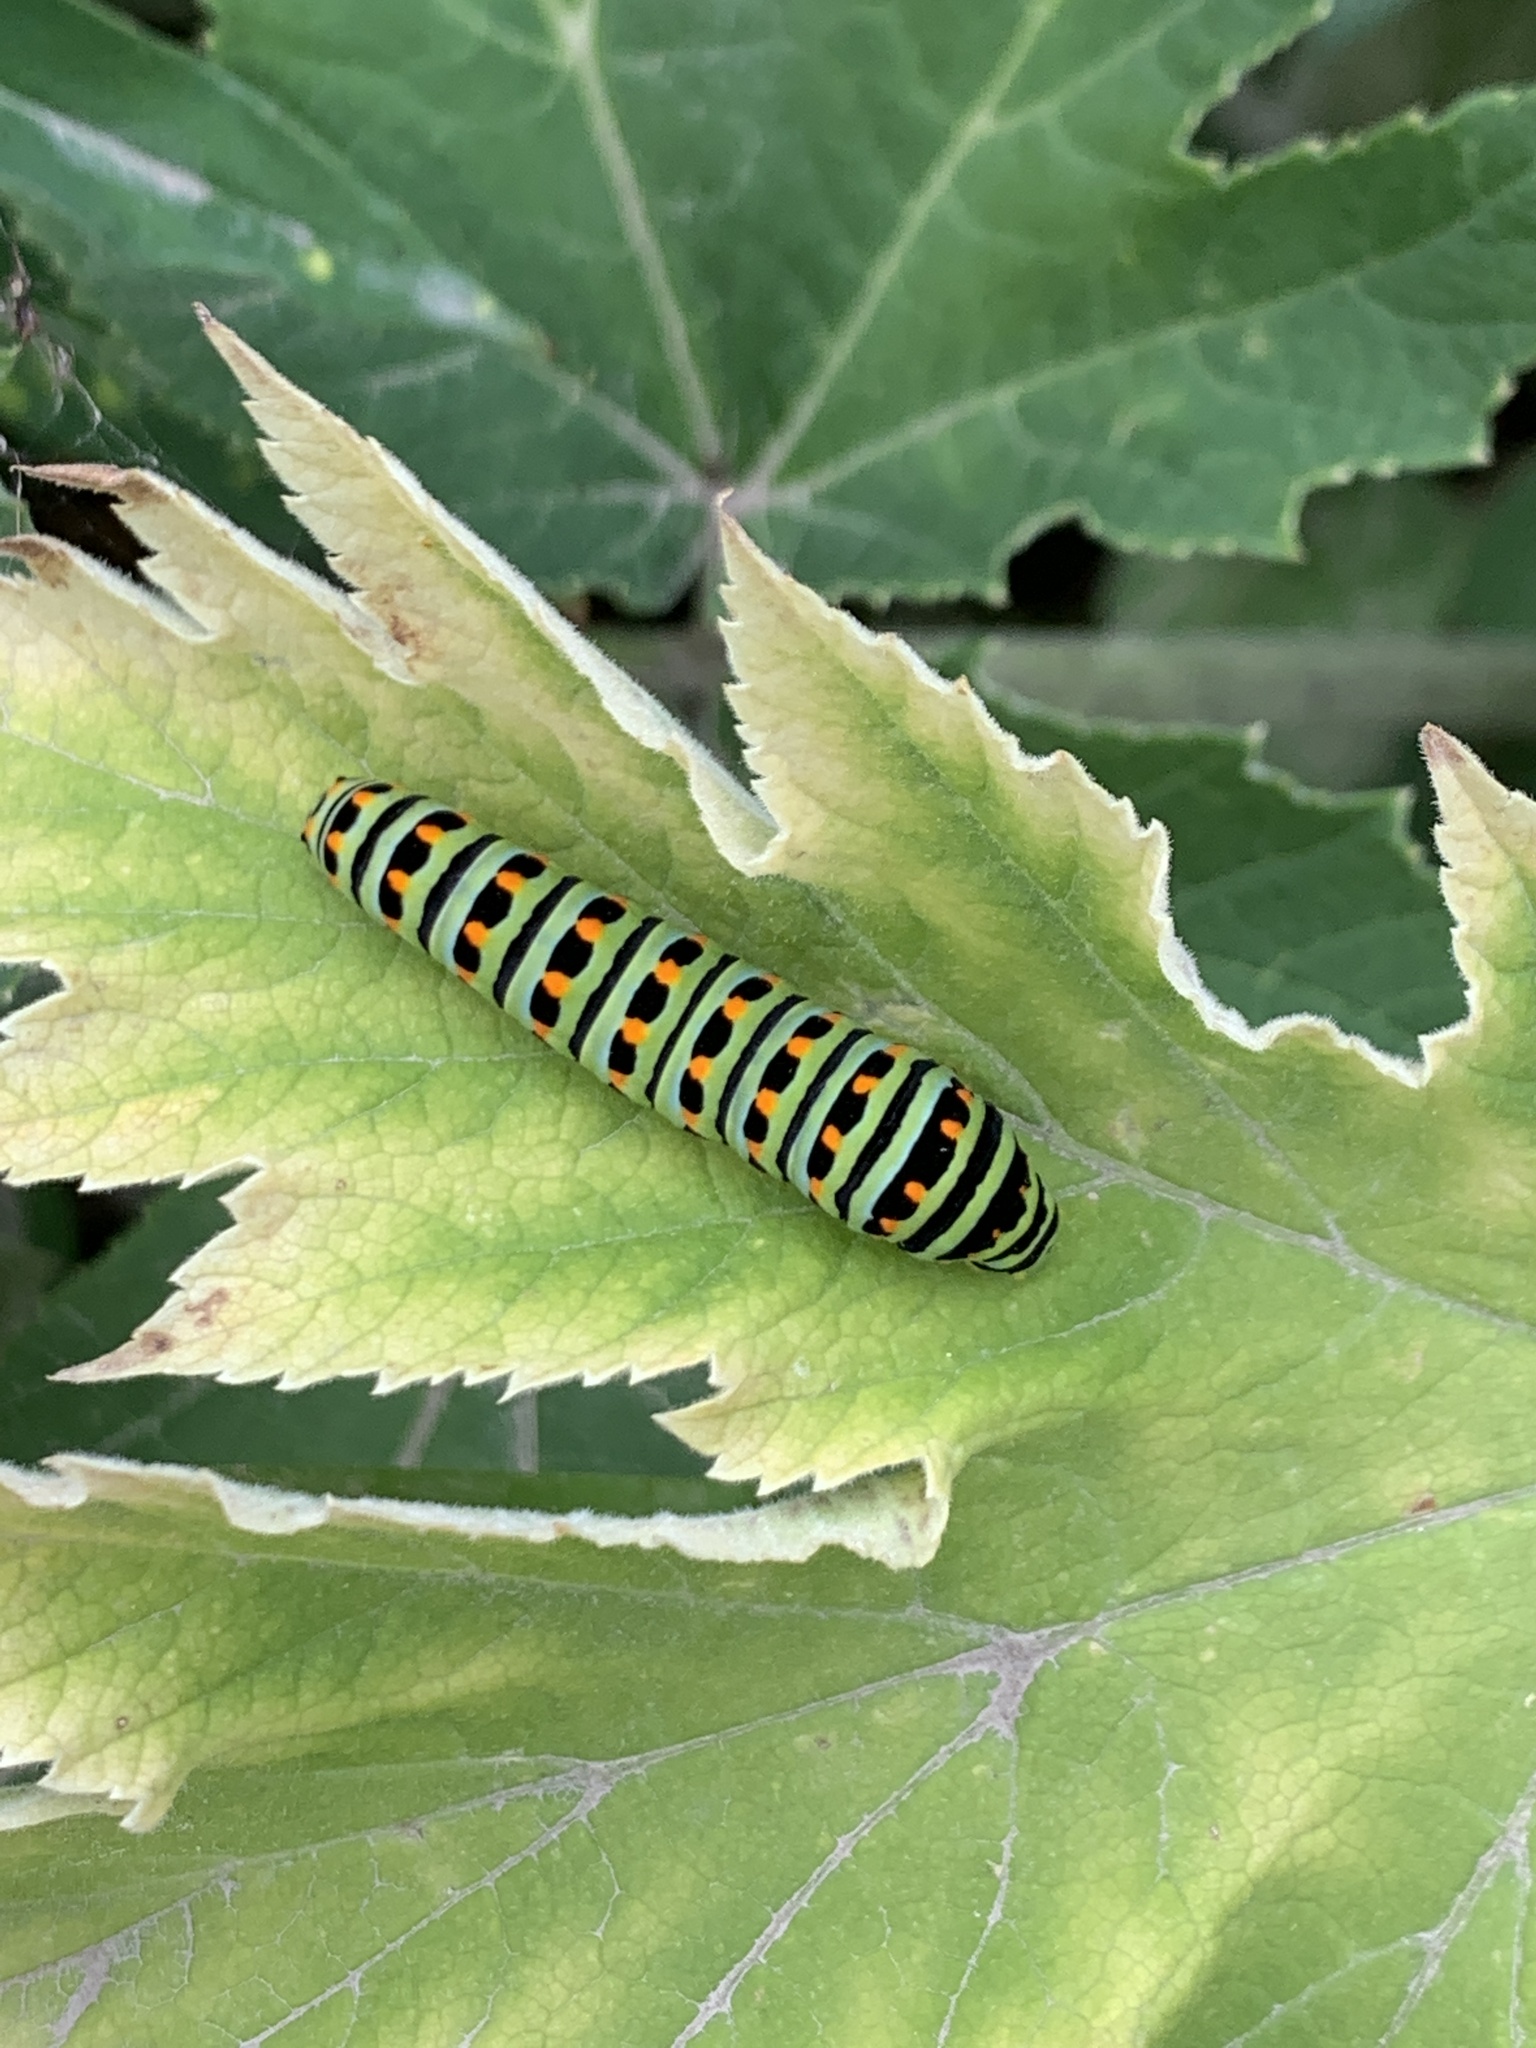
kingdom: Animalia
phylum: Arthropoda
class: Insecta
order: Lepidoptera
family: Papilionidae
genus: Papilio
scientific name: Papilio zelicaon
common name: Anise swallowtail
